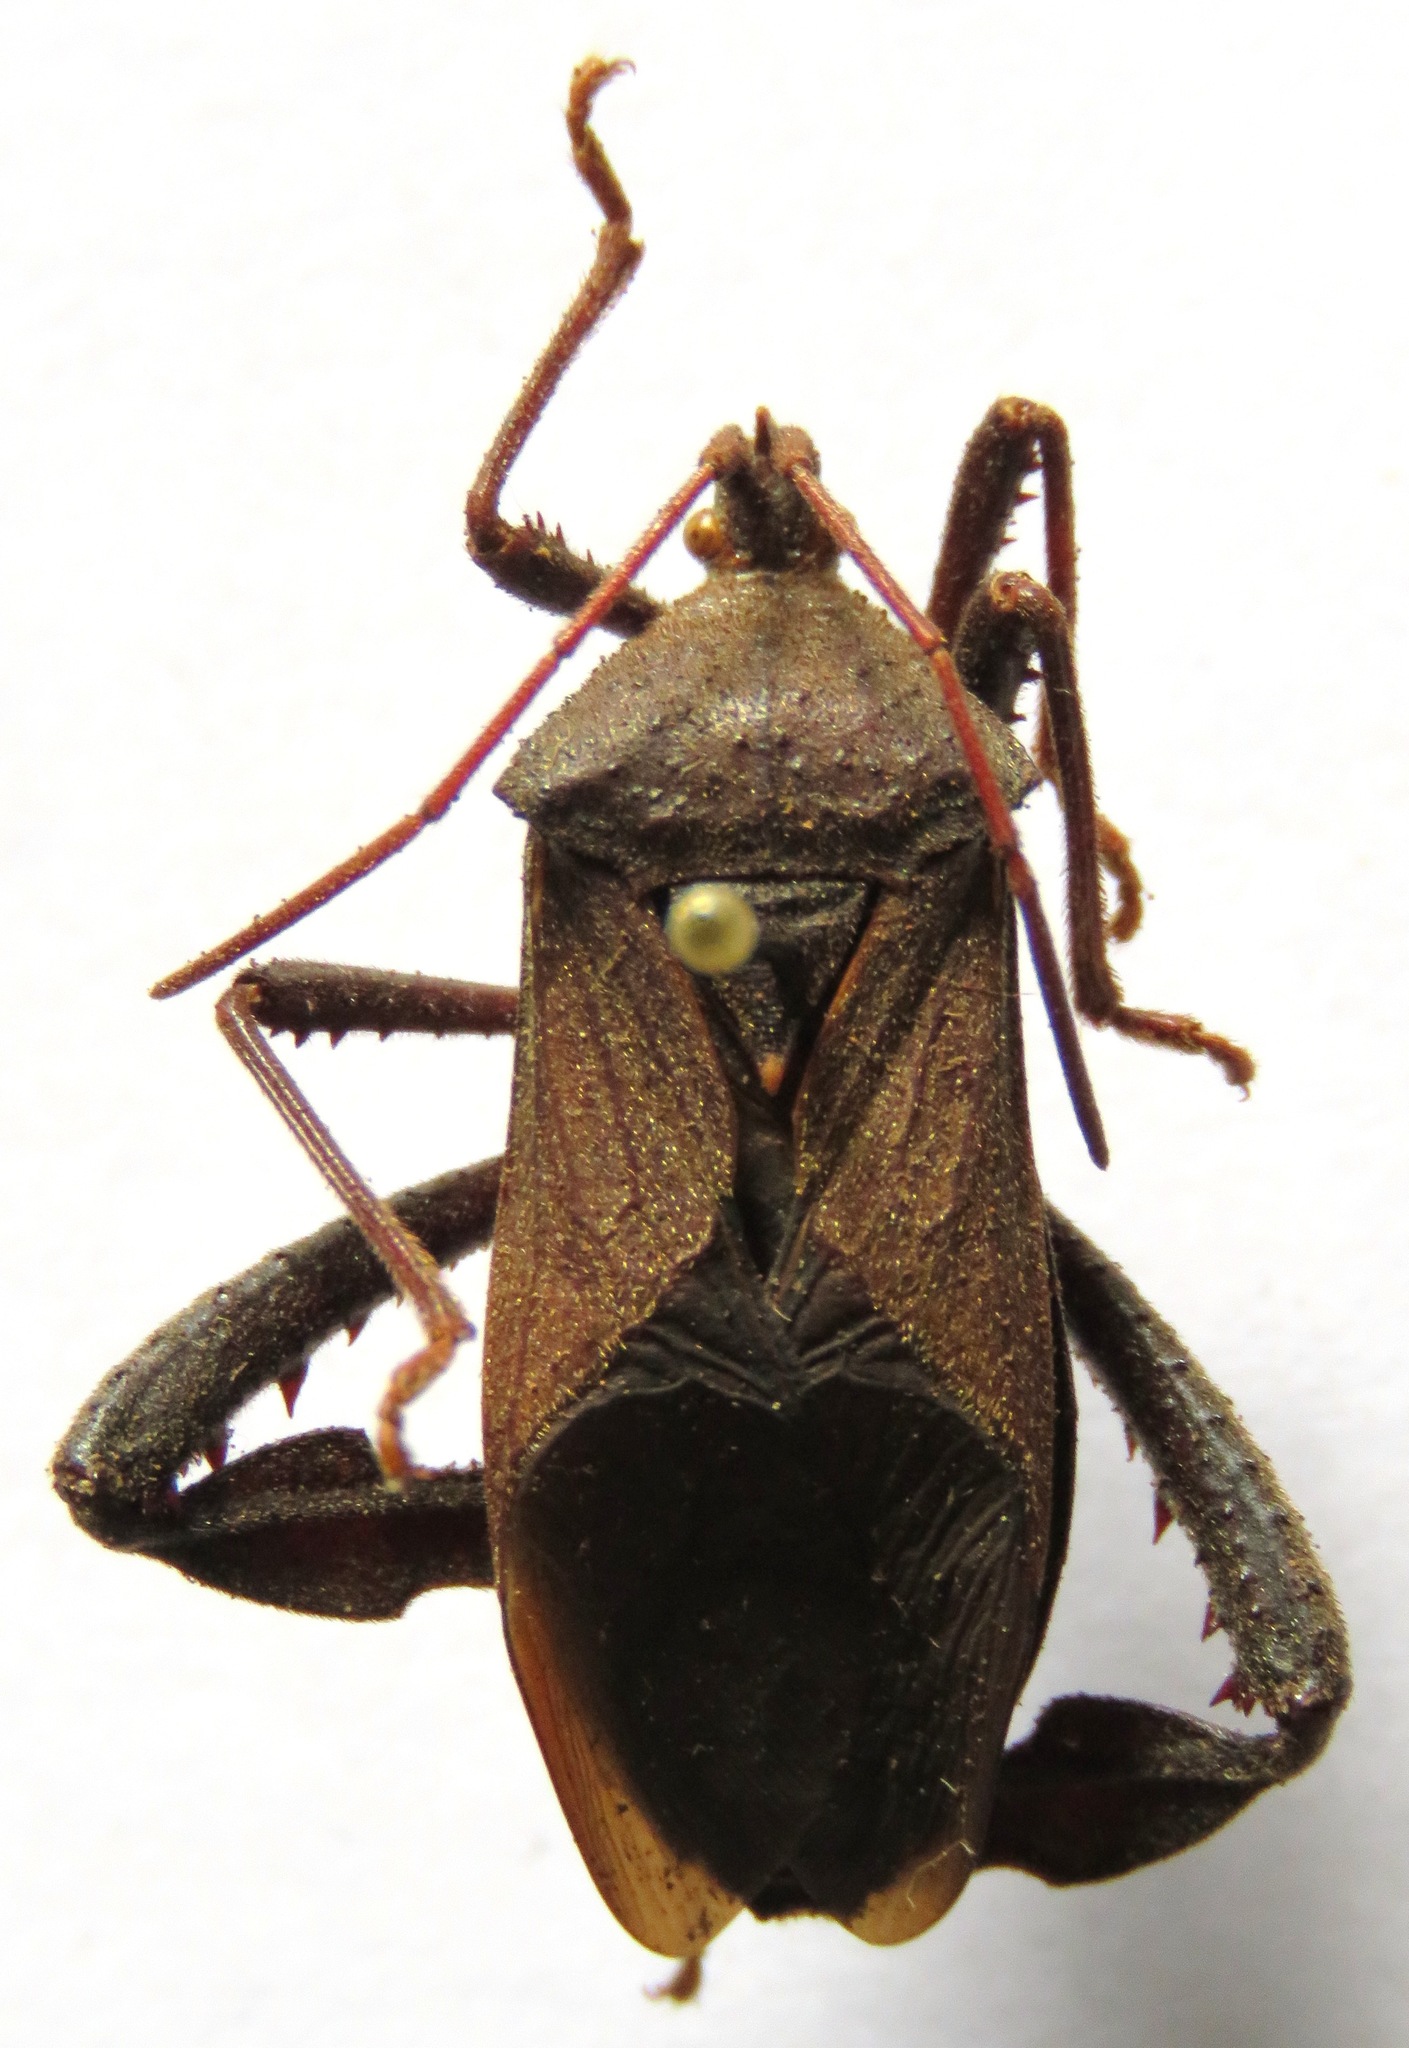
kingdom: Animalia
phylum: Arthropoda
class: Insecta
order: Hemiptera
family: Coreidae
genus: Acanthocephala
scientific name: Acanthocephala femorata
